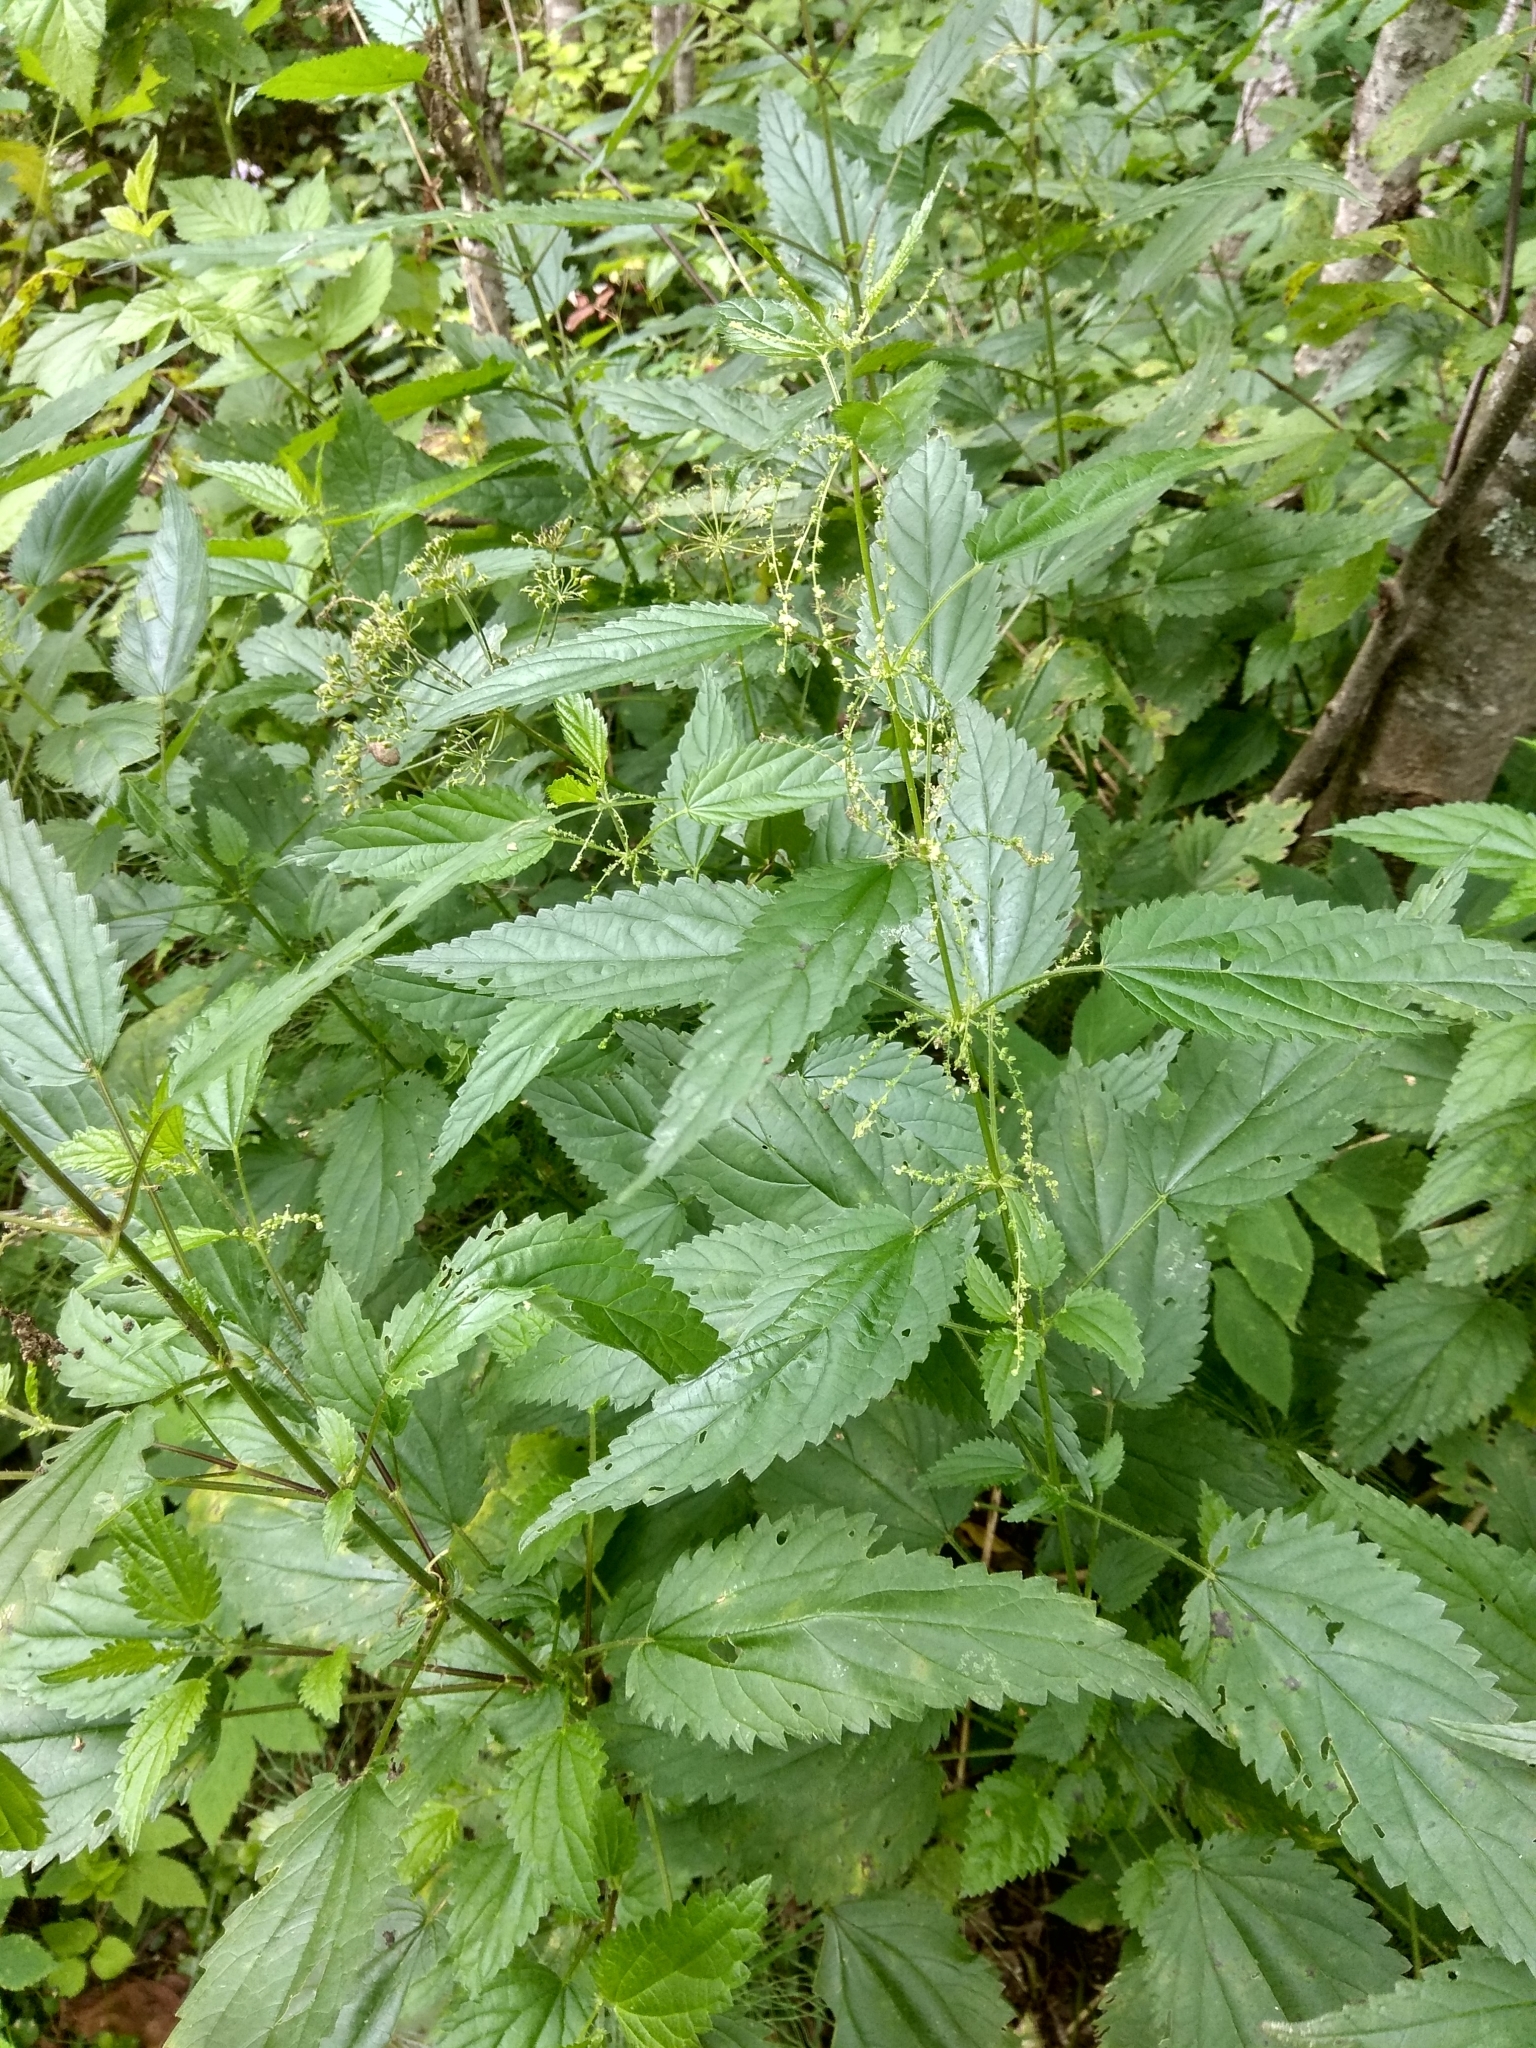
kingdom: Plantae
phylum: Tracheophyta
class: Magnoliopsida
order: Rosales
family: Urticaceae
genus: Urtica
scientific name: Urtica dioica
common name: Common nettle
